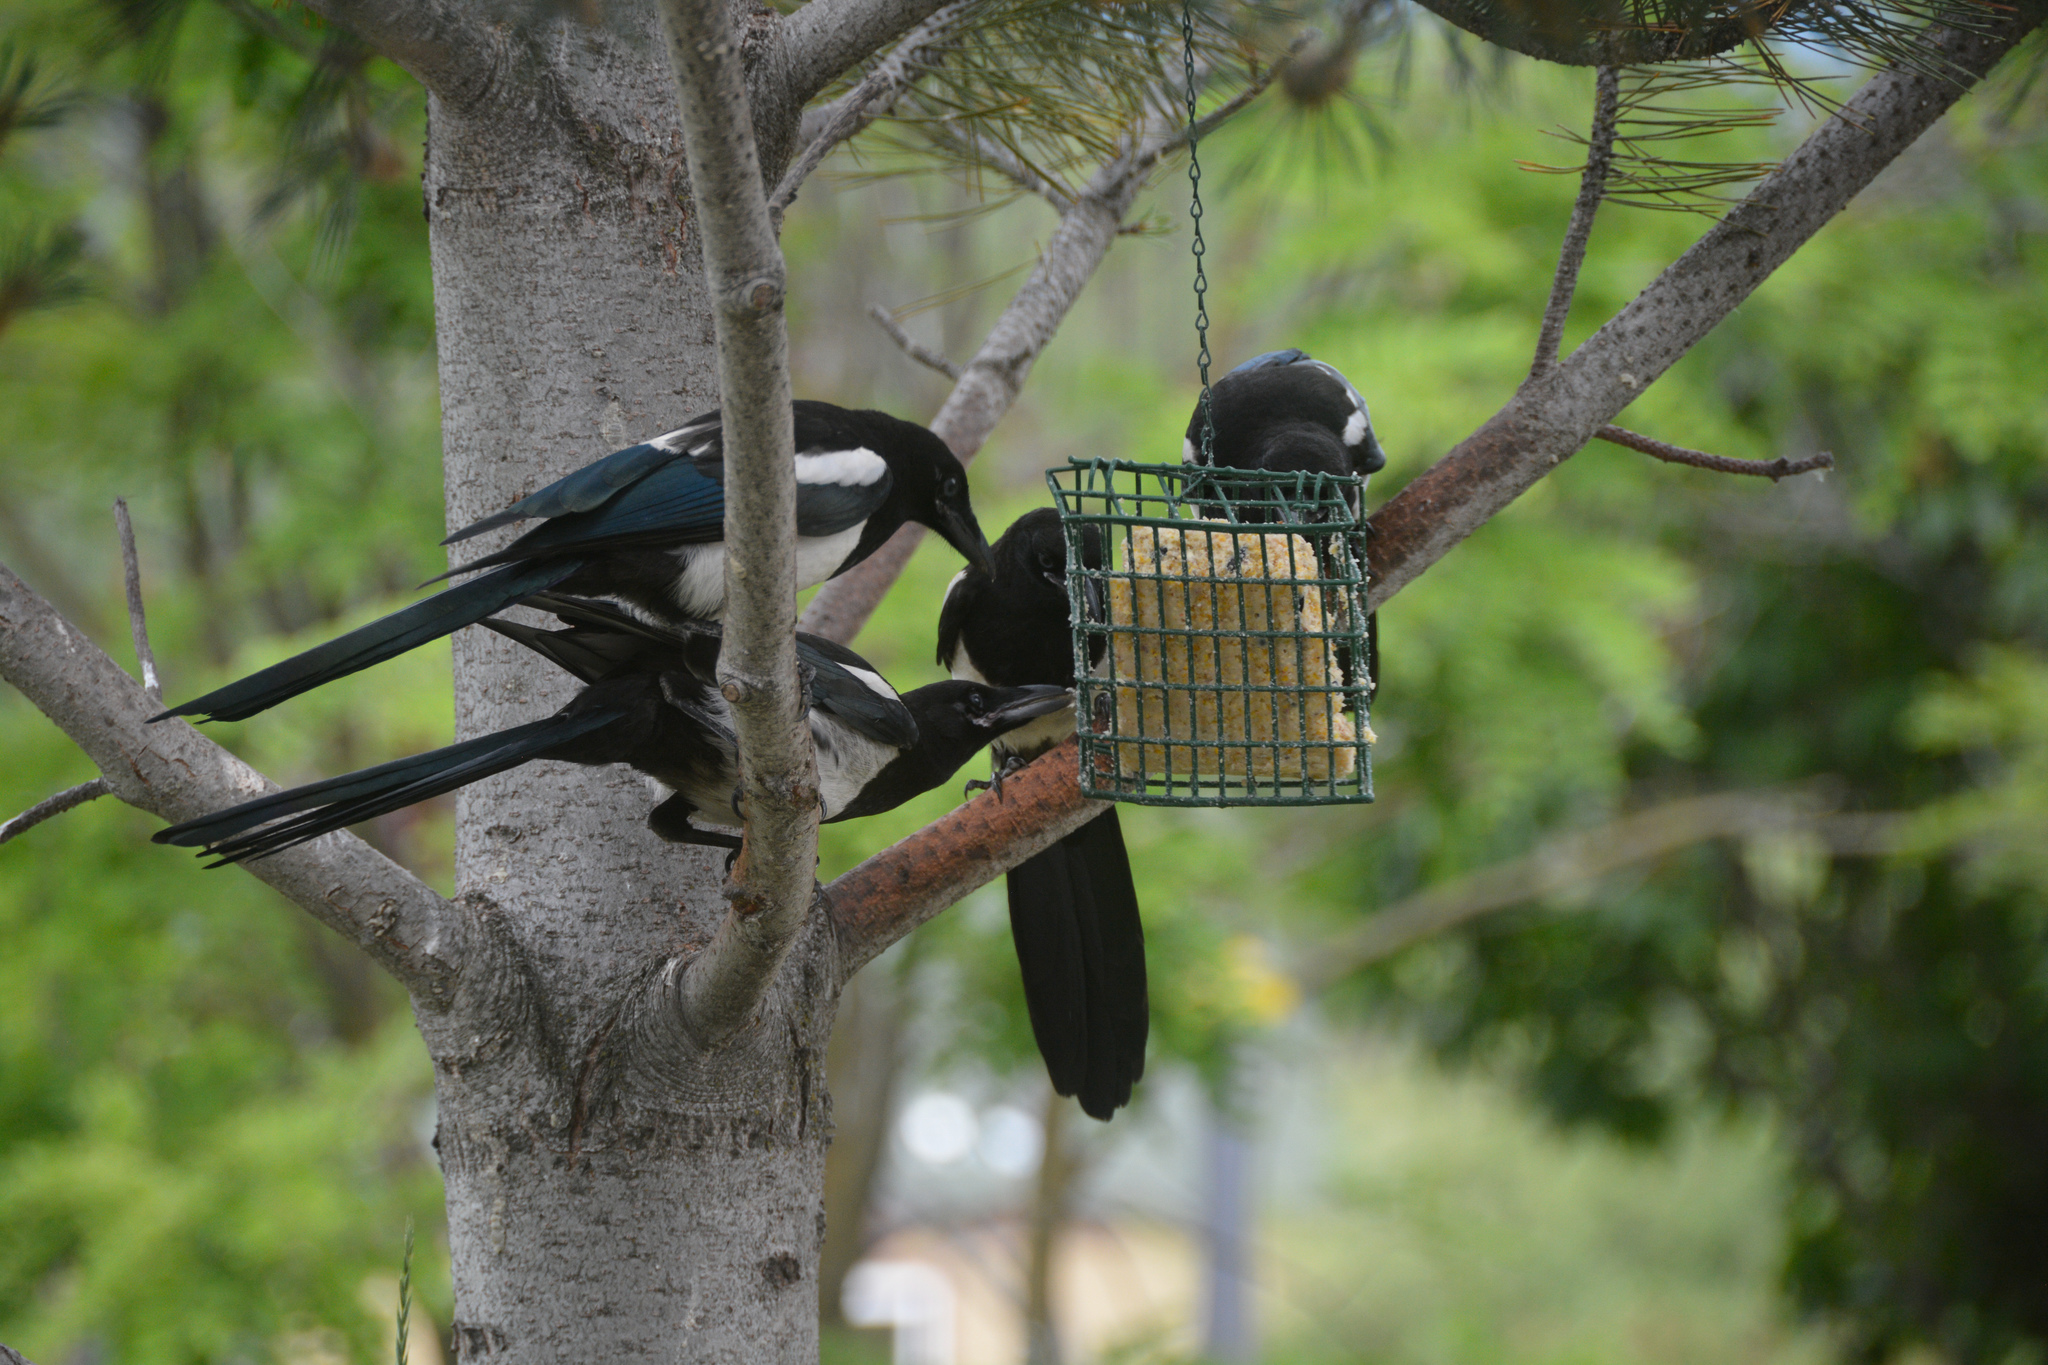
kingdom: Animalia
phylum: Chordata
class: Aves
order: Passeriformes
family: Corvidae
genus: Pica
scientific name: Pica hudsonia
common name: Black-billed magpie
